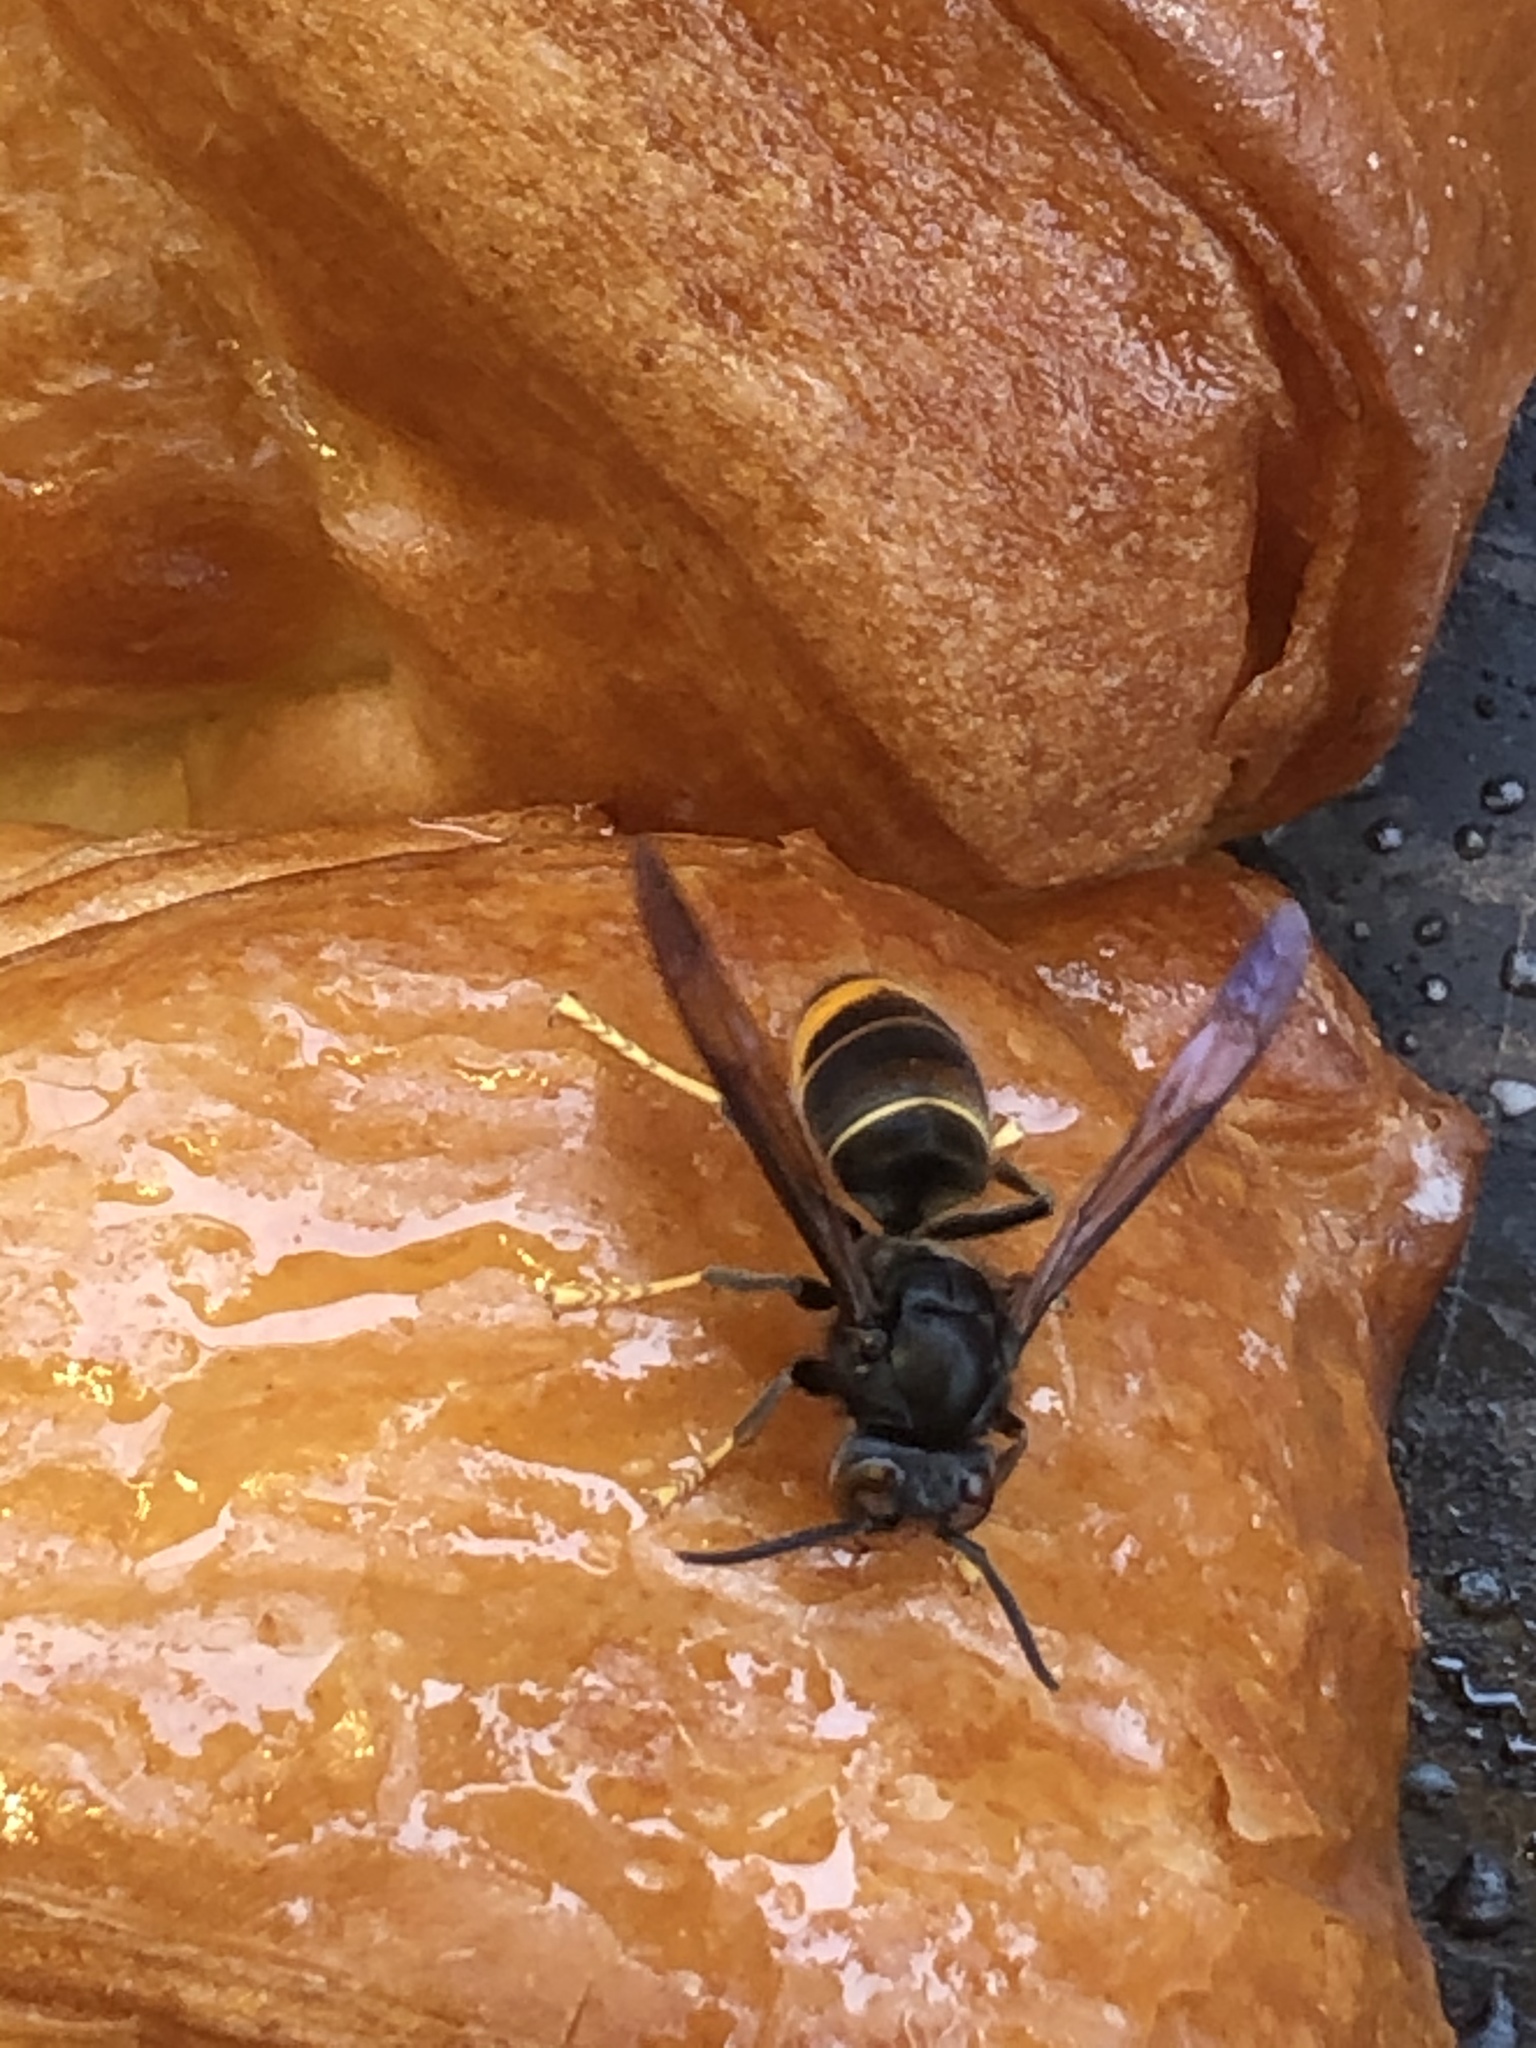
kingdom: Animalia
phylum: Arthropoda
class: Insecta
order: Hymenoptera
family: Vespidae
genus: Vespa
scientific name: Vespa velutina
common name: Asian hornet
